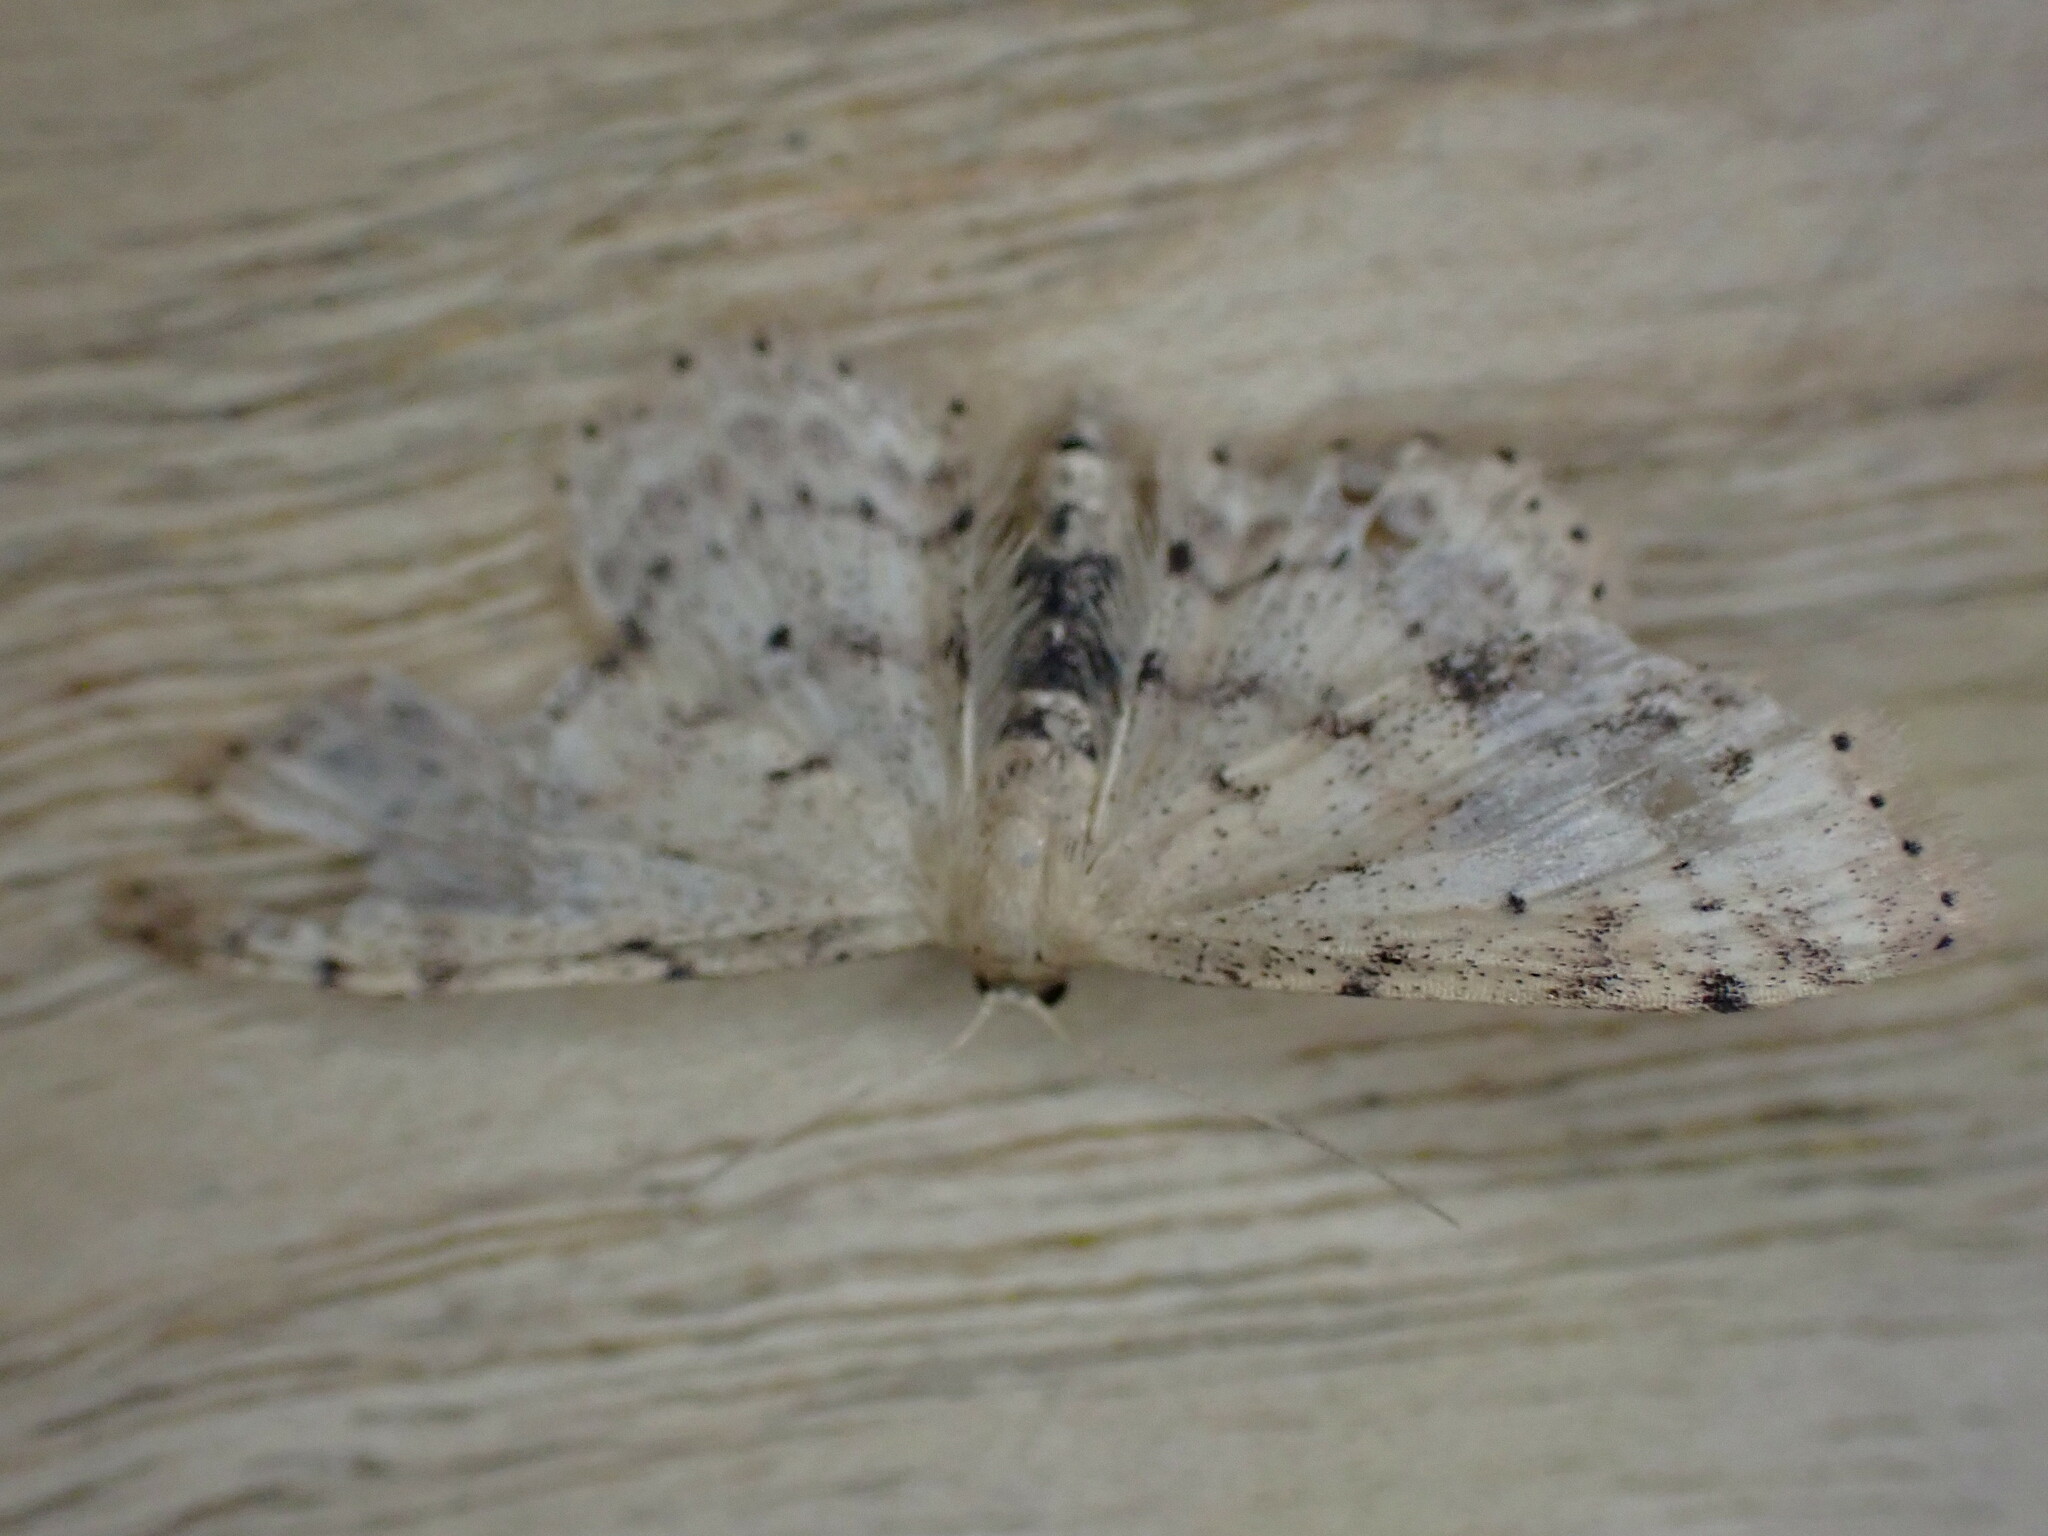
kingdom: Animalia
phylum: Arthropoda
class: Insecta
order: Lepidoptera
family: Geometridae
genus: Idaea
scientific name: Idaea dimidiata
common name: Single-dotted wave
